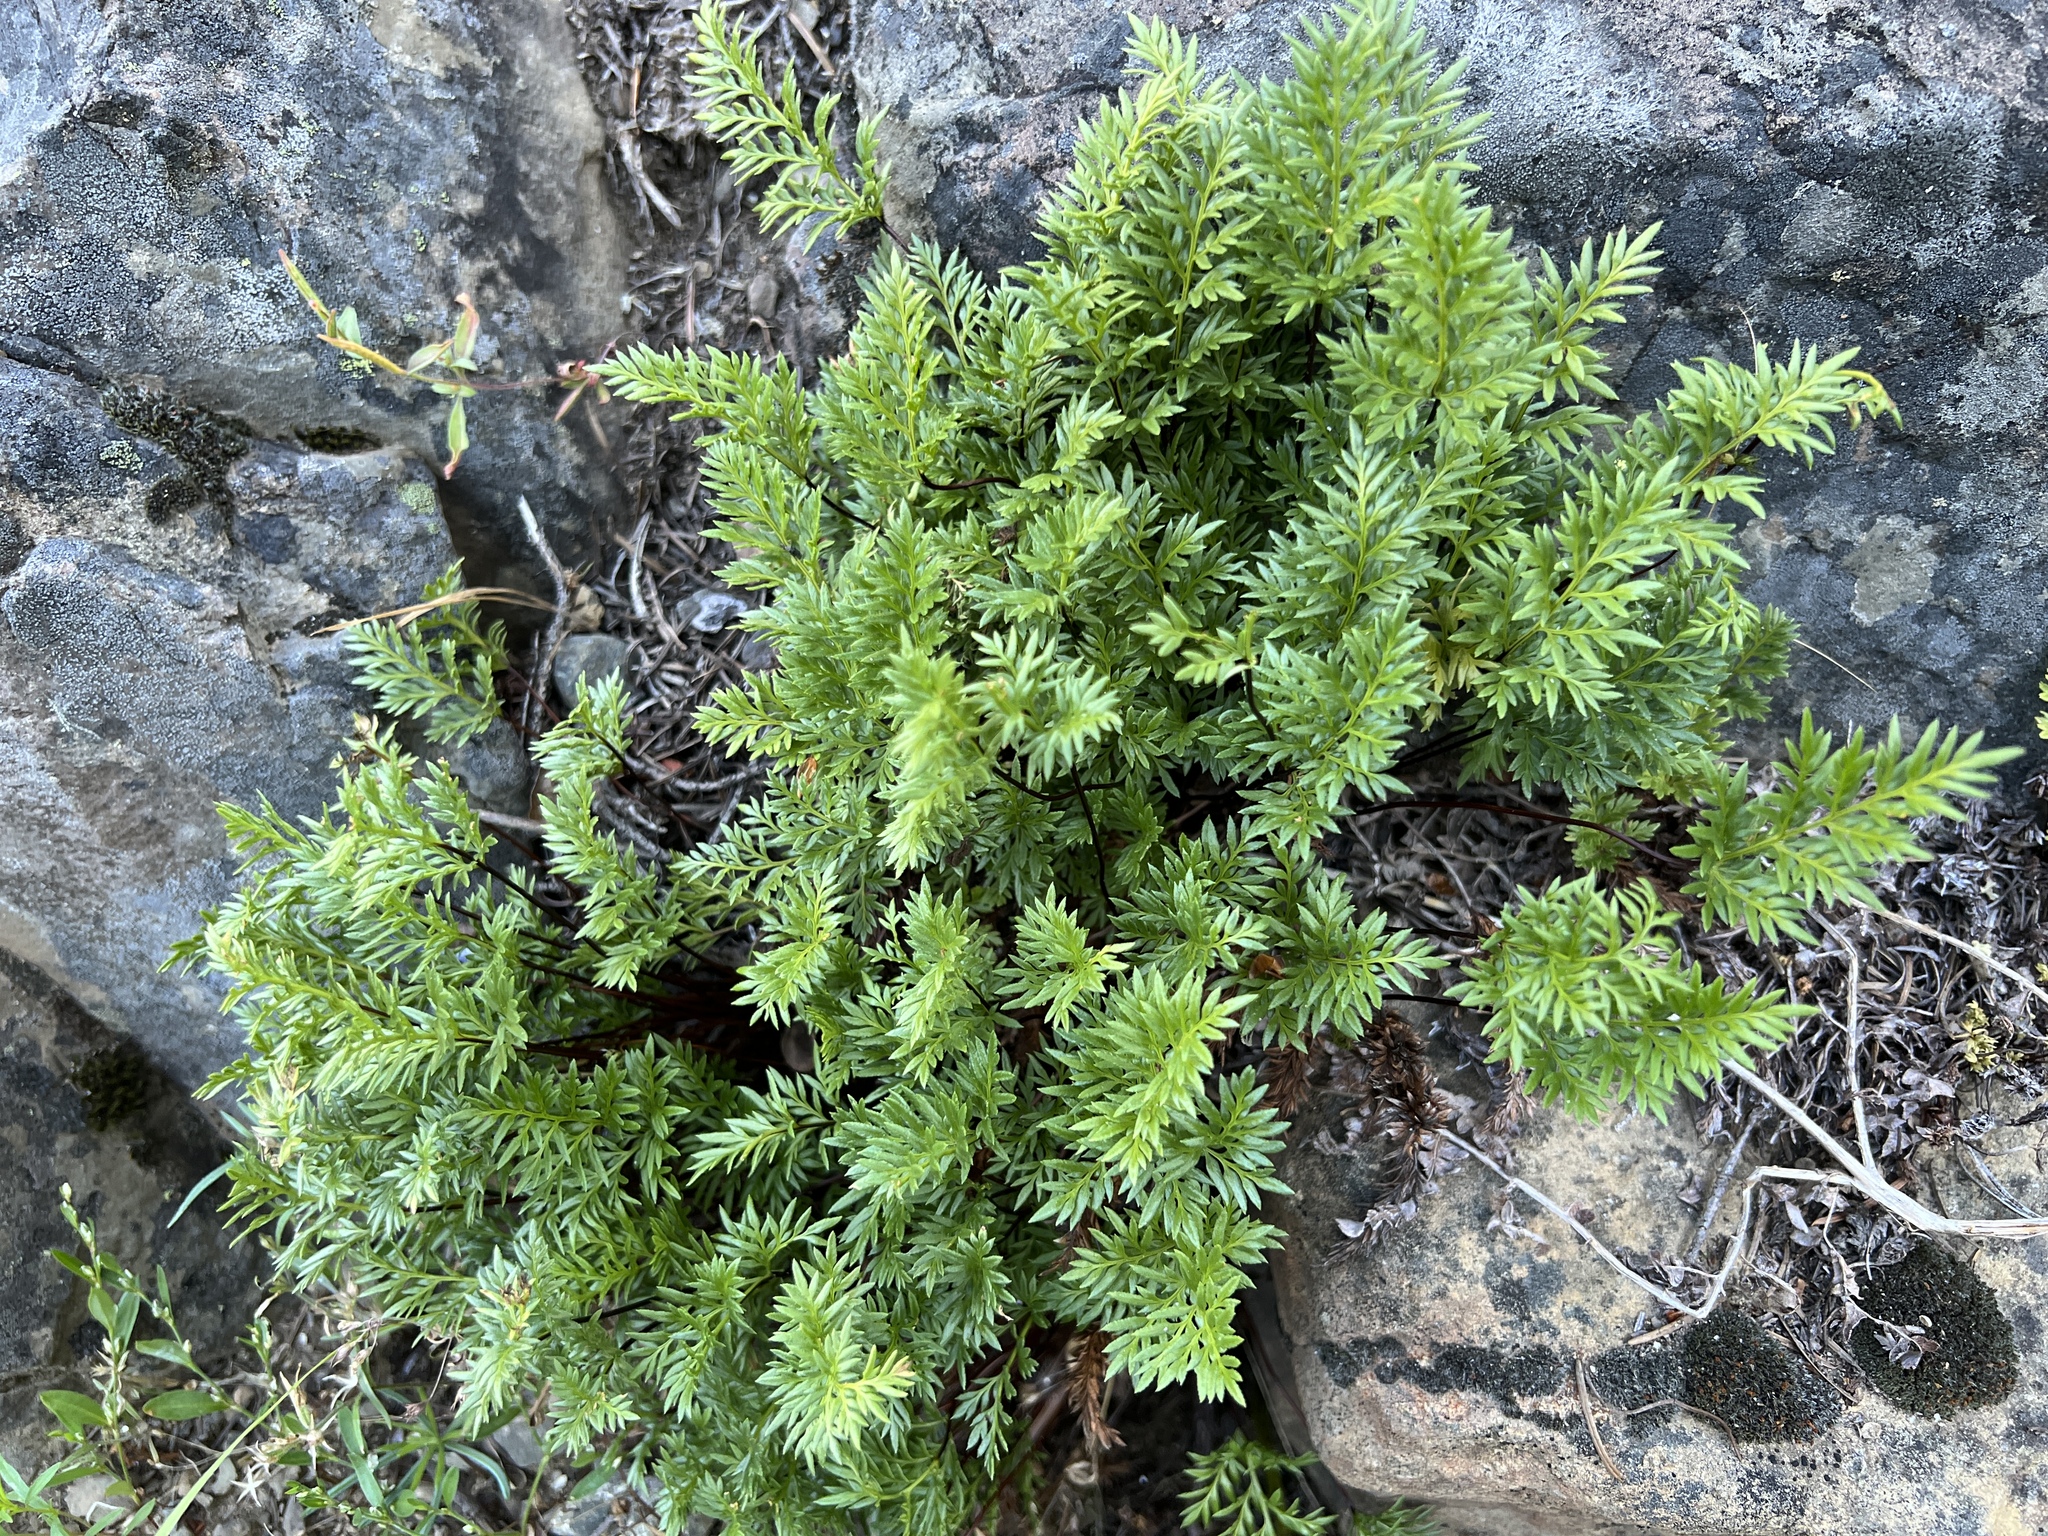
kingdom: Plantae
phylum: Tracheophyta
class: Polypodiopsida
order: Polypodiales
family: Pteridaceae
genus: Aspidotis
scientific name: Aspidotis densa
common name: Indian's dream
